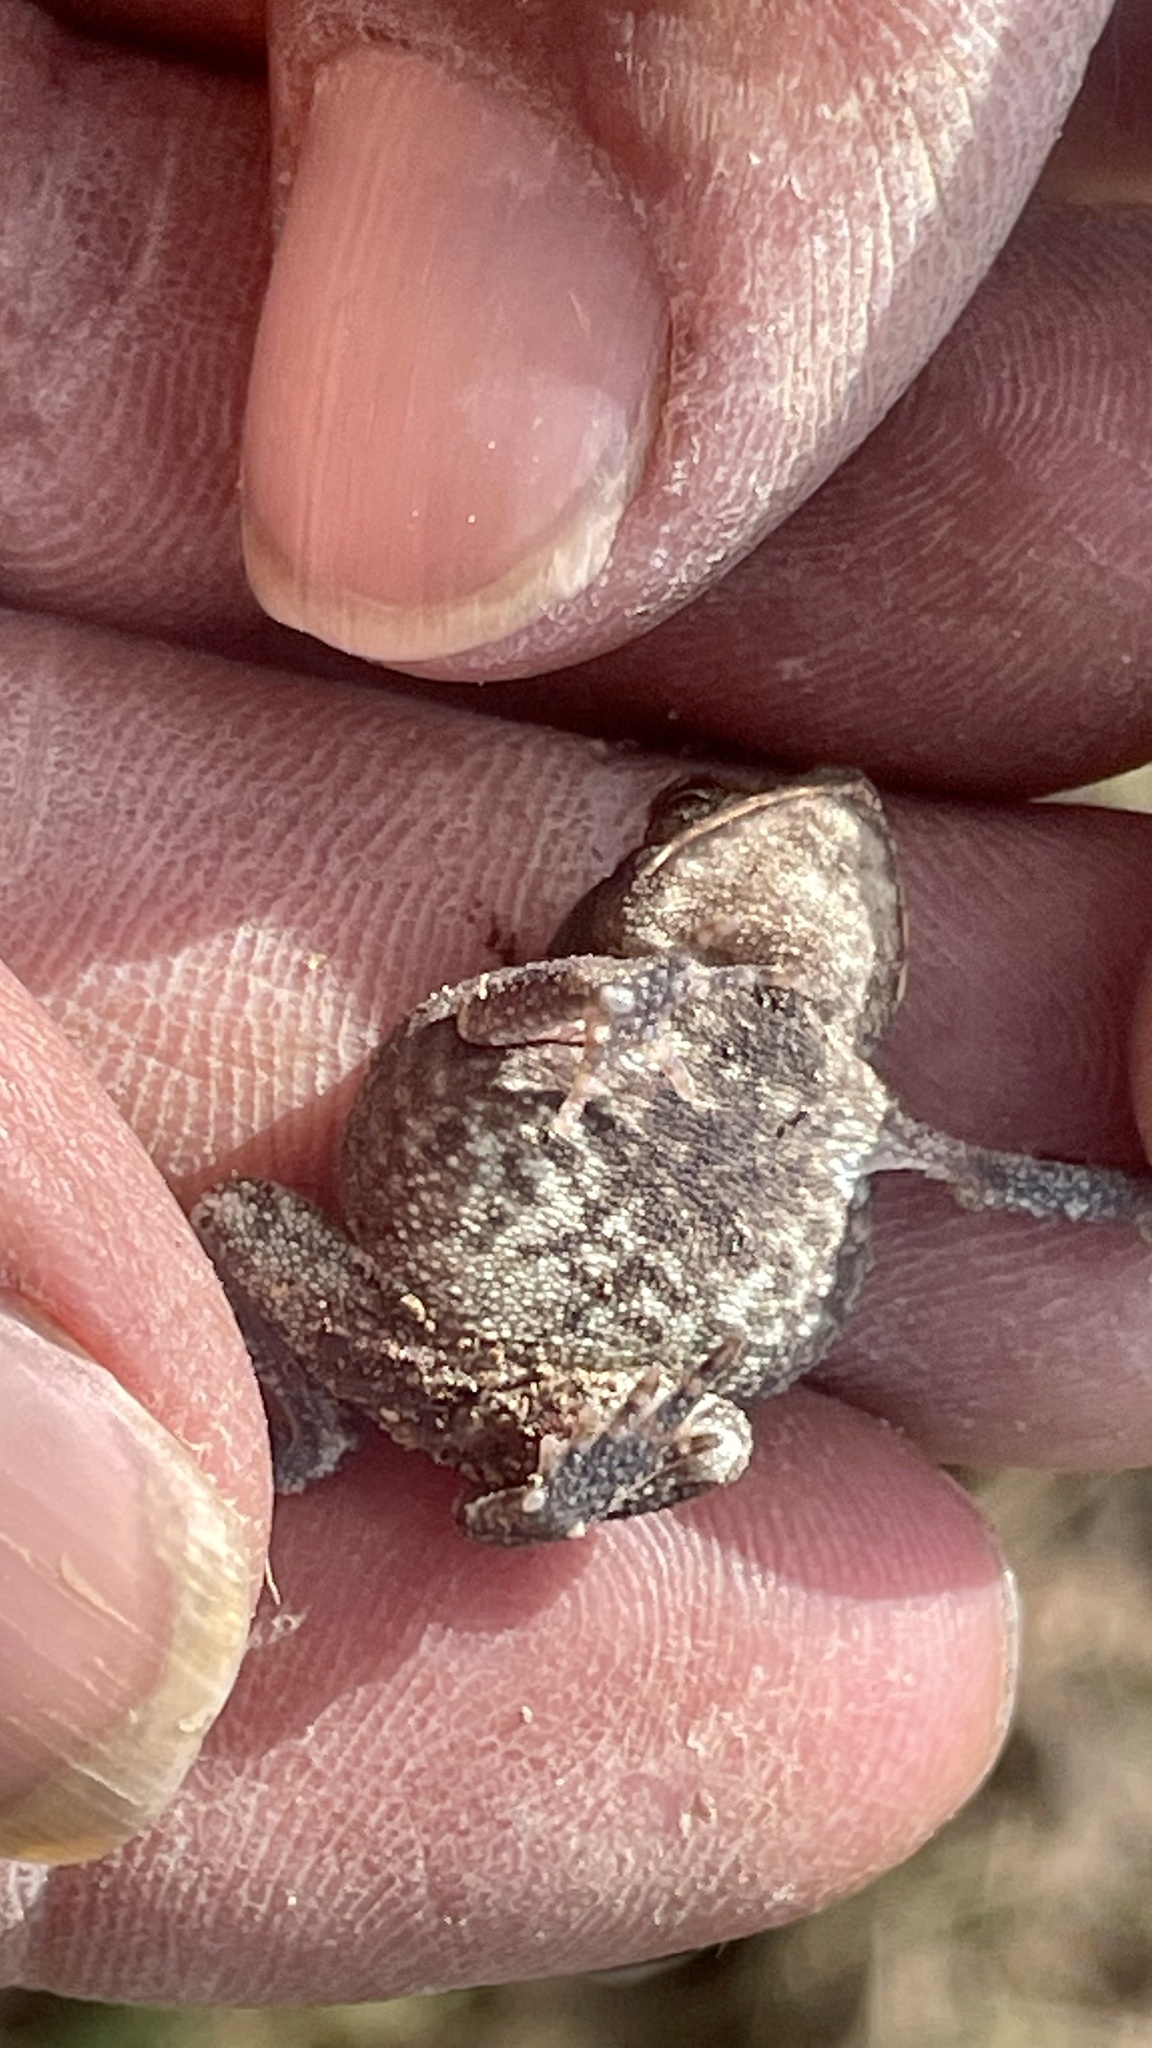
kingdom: Animalia
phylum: Chordata
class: Amphibia
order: Anura
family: Bufonidae
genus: Incilius
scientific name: Incilius nebulifer
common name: Gulf coast toad
